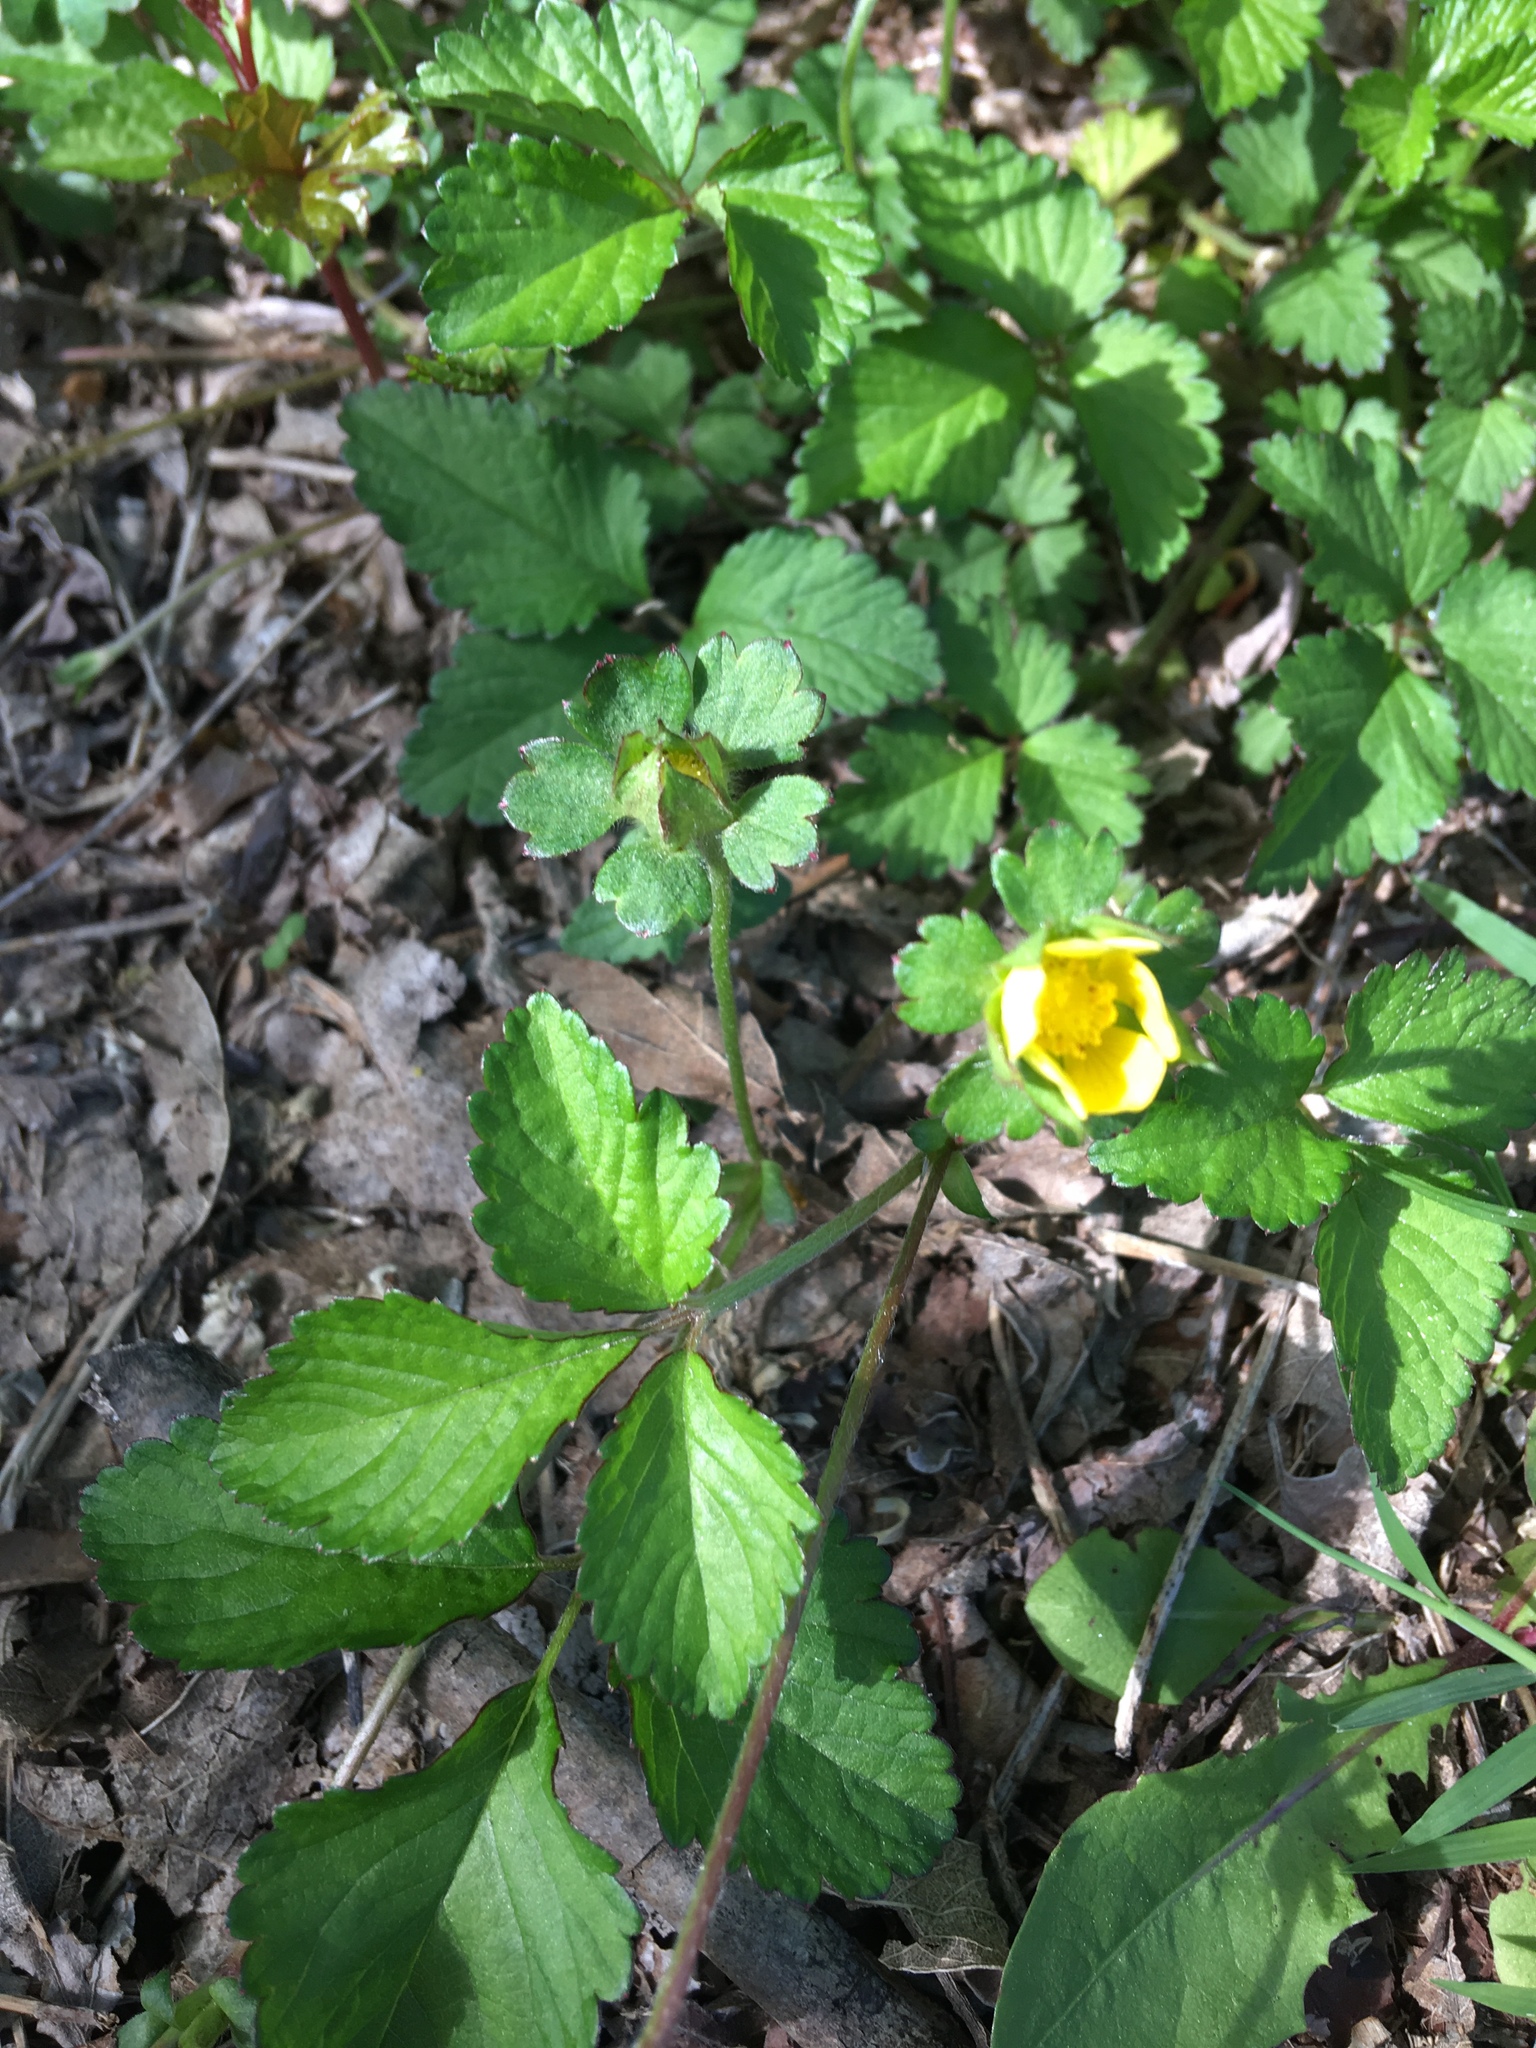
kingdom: Plantae
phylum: Tracheophyta
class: Magnoliopsida
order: Rosales
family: Rosaceae
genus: Potentilla
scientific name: Potentilla indica
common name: Yellow-flowered strawberry
